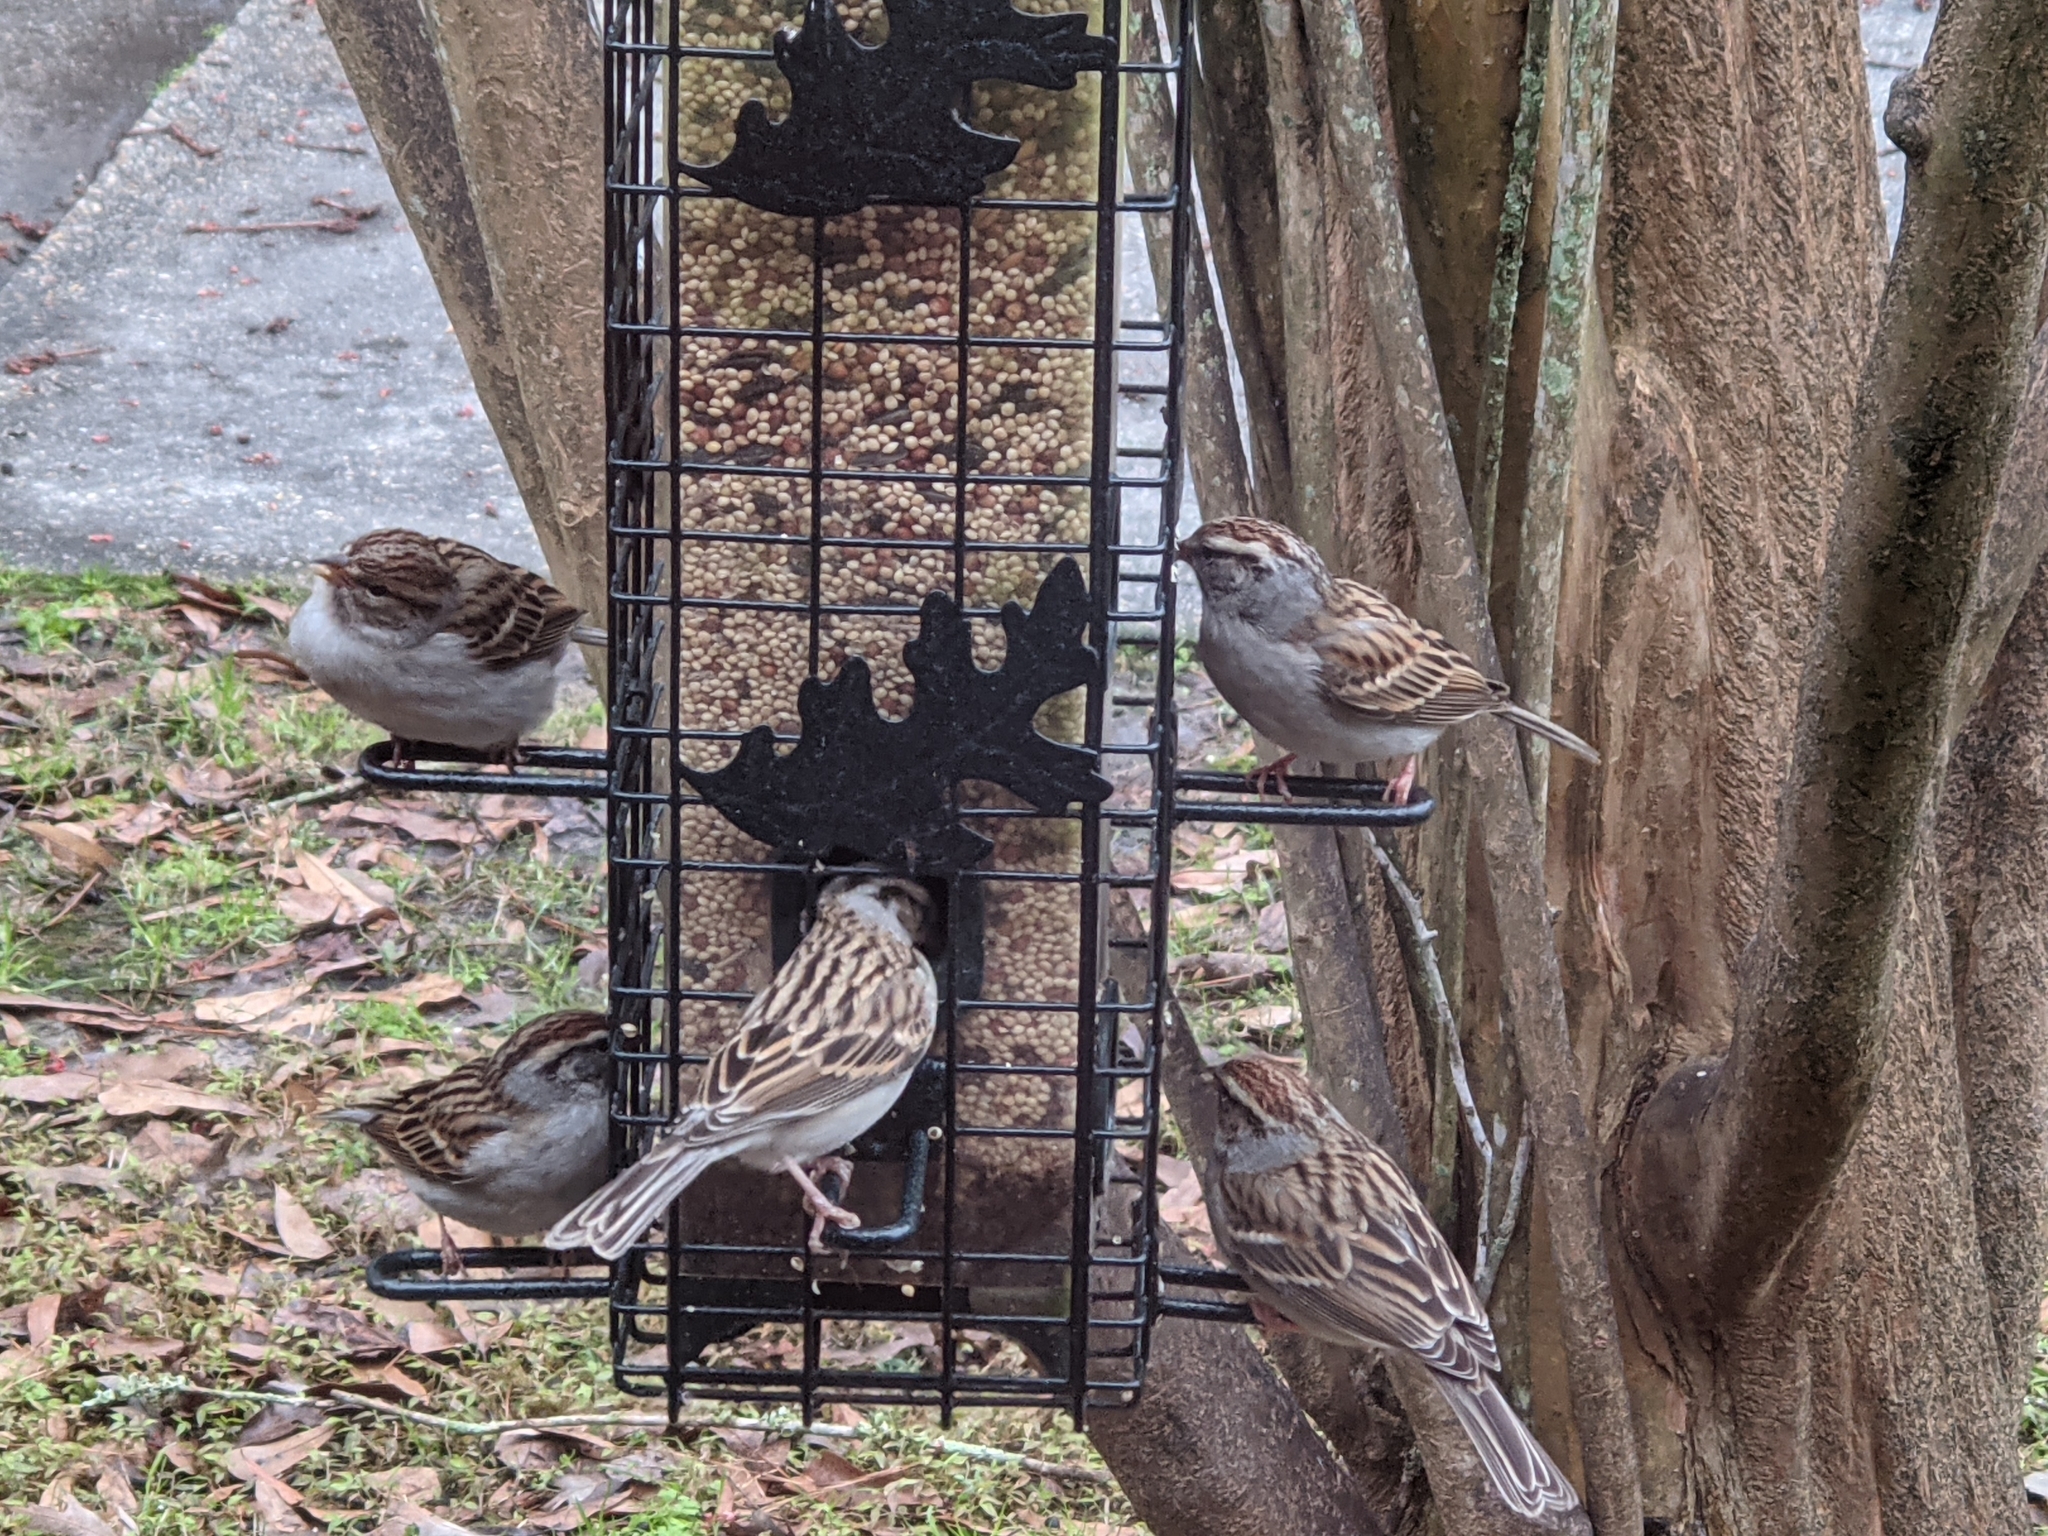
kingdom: Animalia
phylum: Chordata
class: Aves
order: Passeriformes
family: Passerellidae
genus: Spizella
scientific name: Spizella passerina
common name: Chipping sparrow
